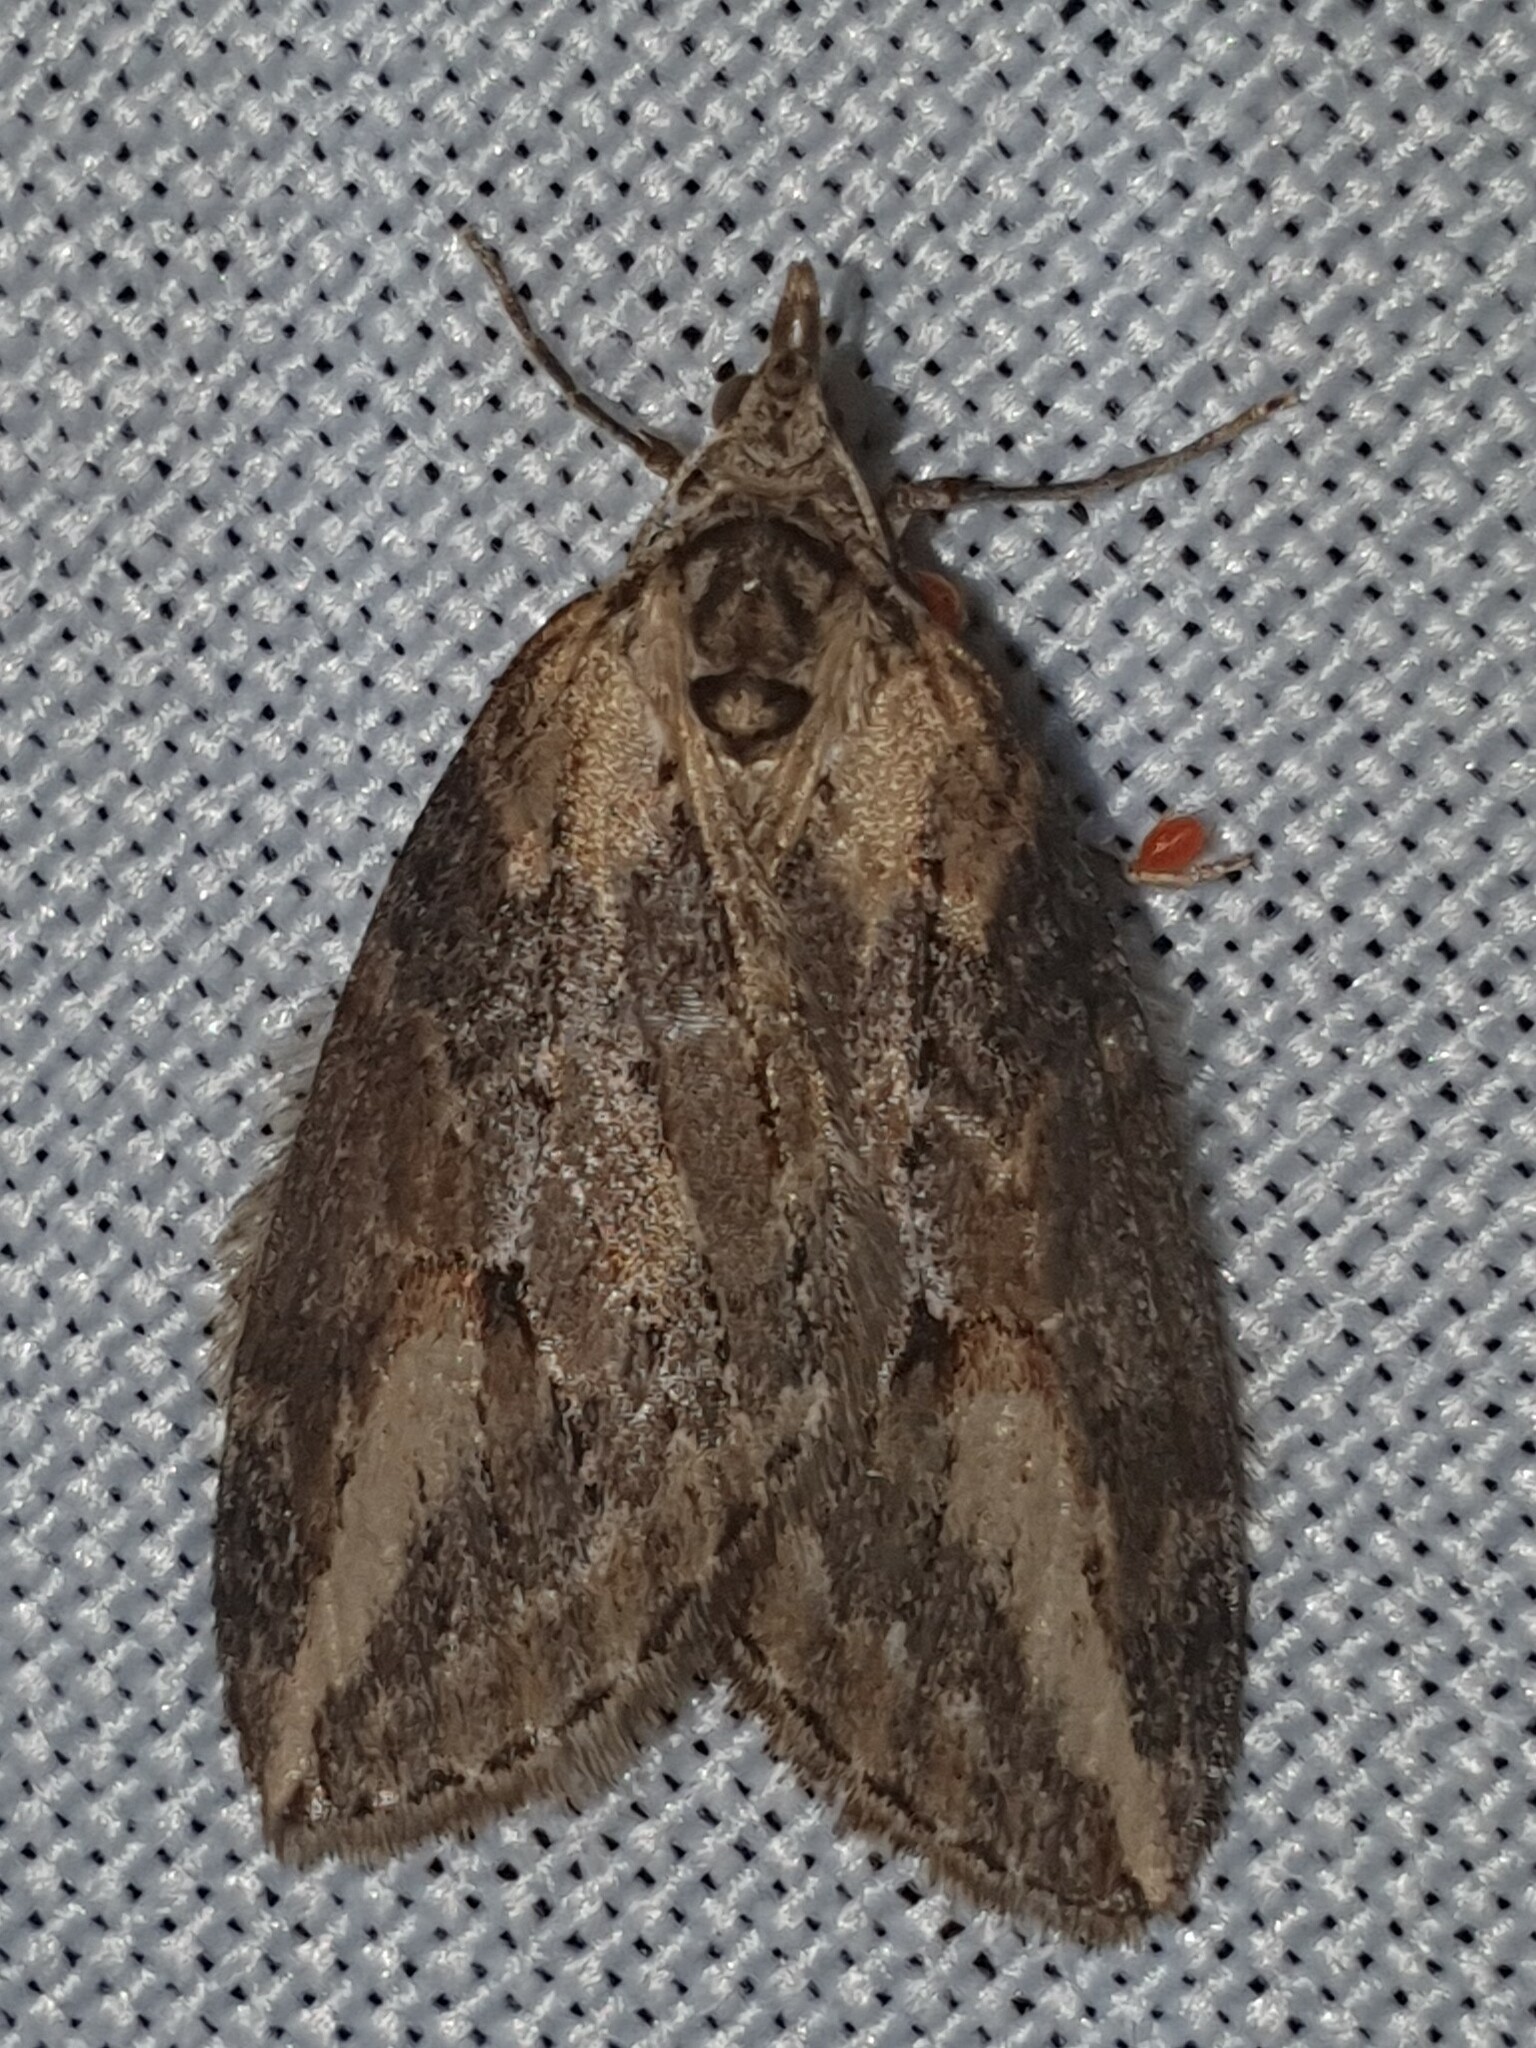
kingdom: Animalia
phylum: Arthropoda
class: Insecta
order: Lepidoptera
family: Geometridae
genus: Chesias
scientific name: Chesias isabella
